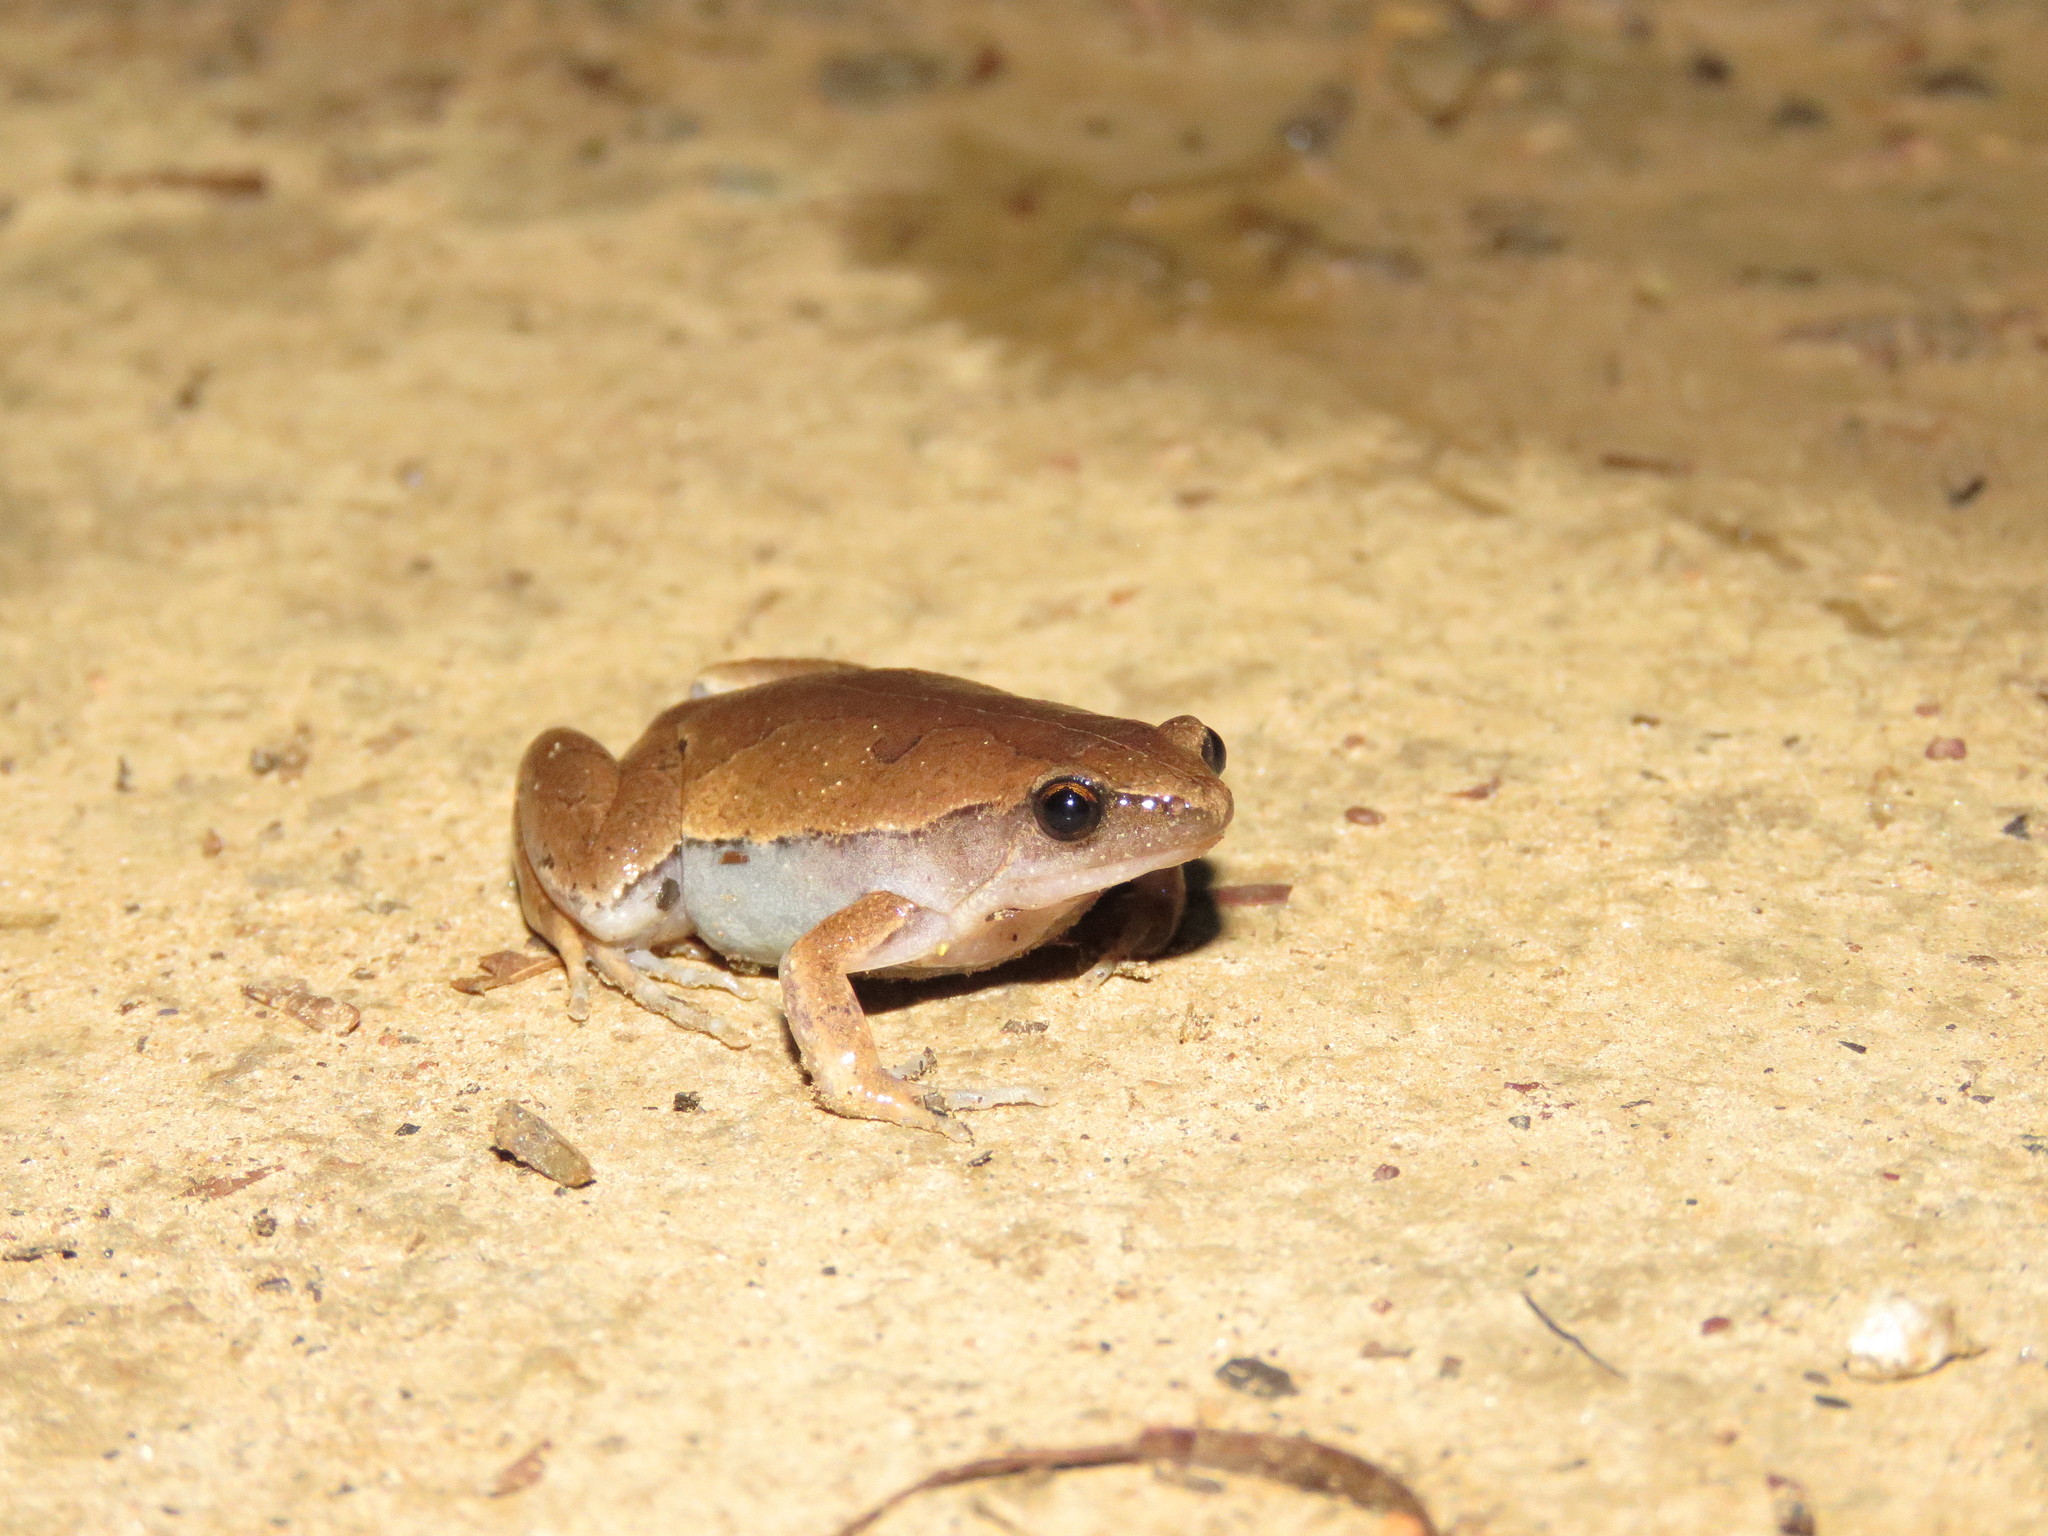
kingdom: Animalia
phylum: Chordata
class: Amphibia
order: Anura
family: Microhylidae
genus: Hamptophryne
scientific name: Hamptophryne boliviana
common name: Bolivian bleating frog
